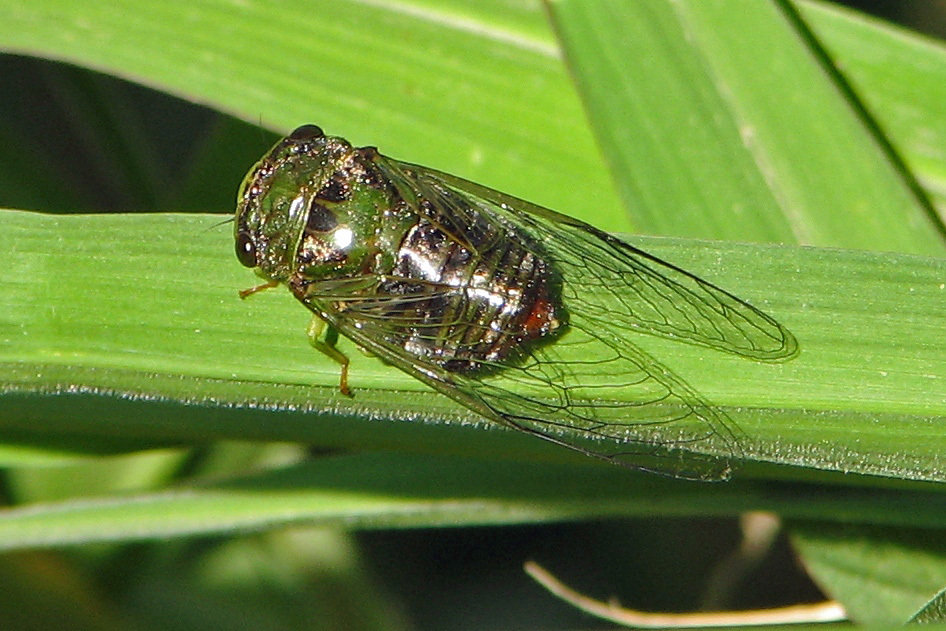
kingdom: Animalia
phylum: Arthropoda
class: Insecta
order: Hemiptera
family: Cicadidae
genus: Acanthoventris
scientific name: Acanthoventris drewseni
